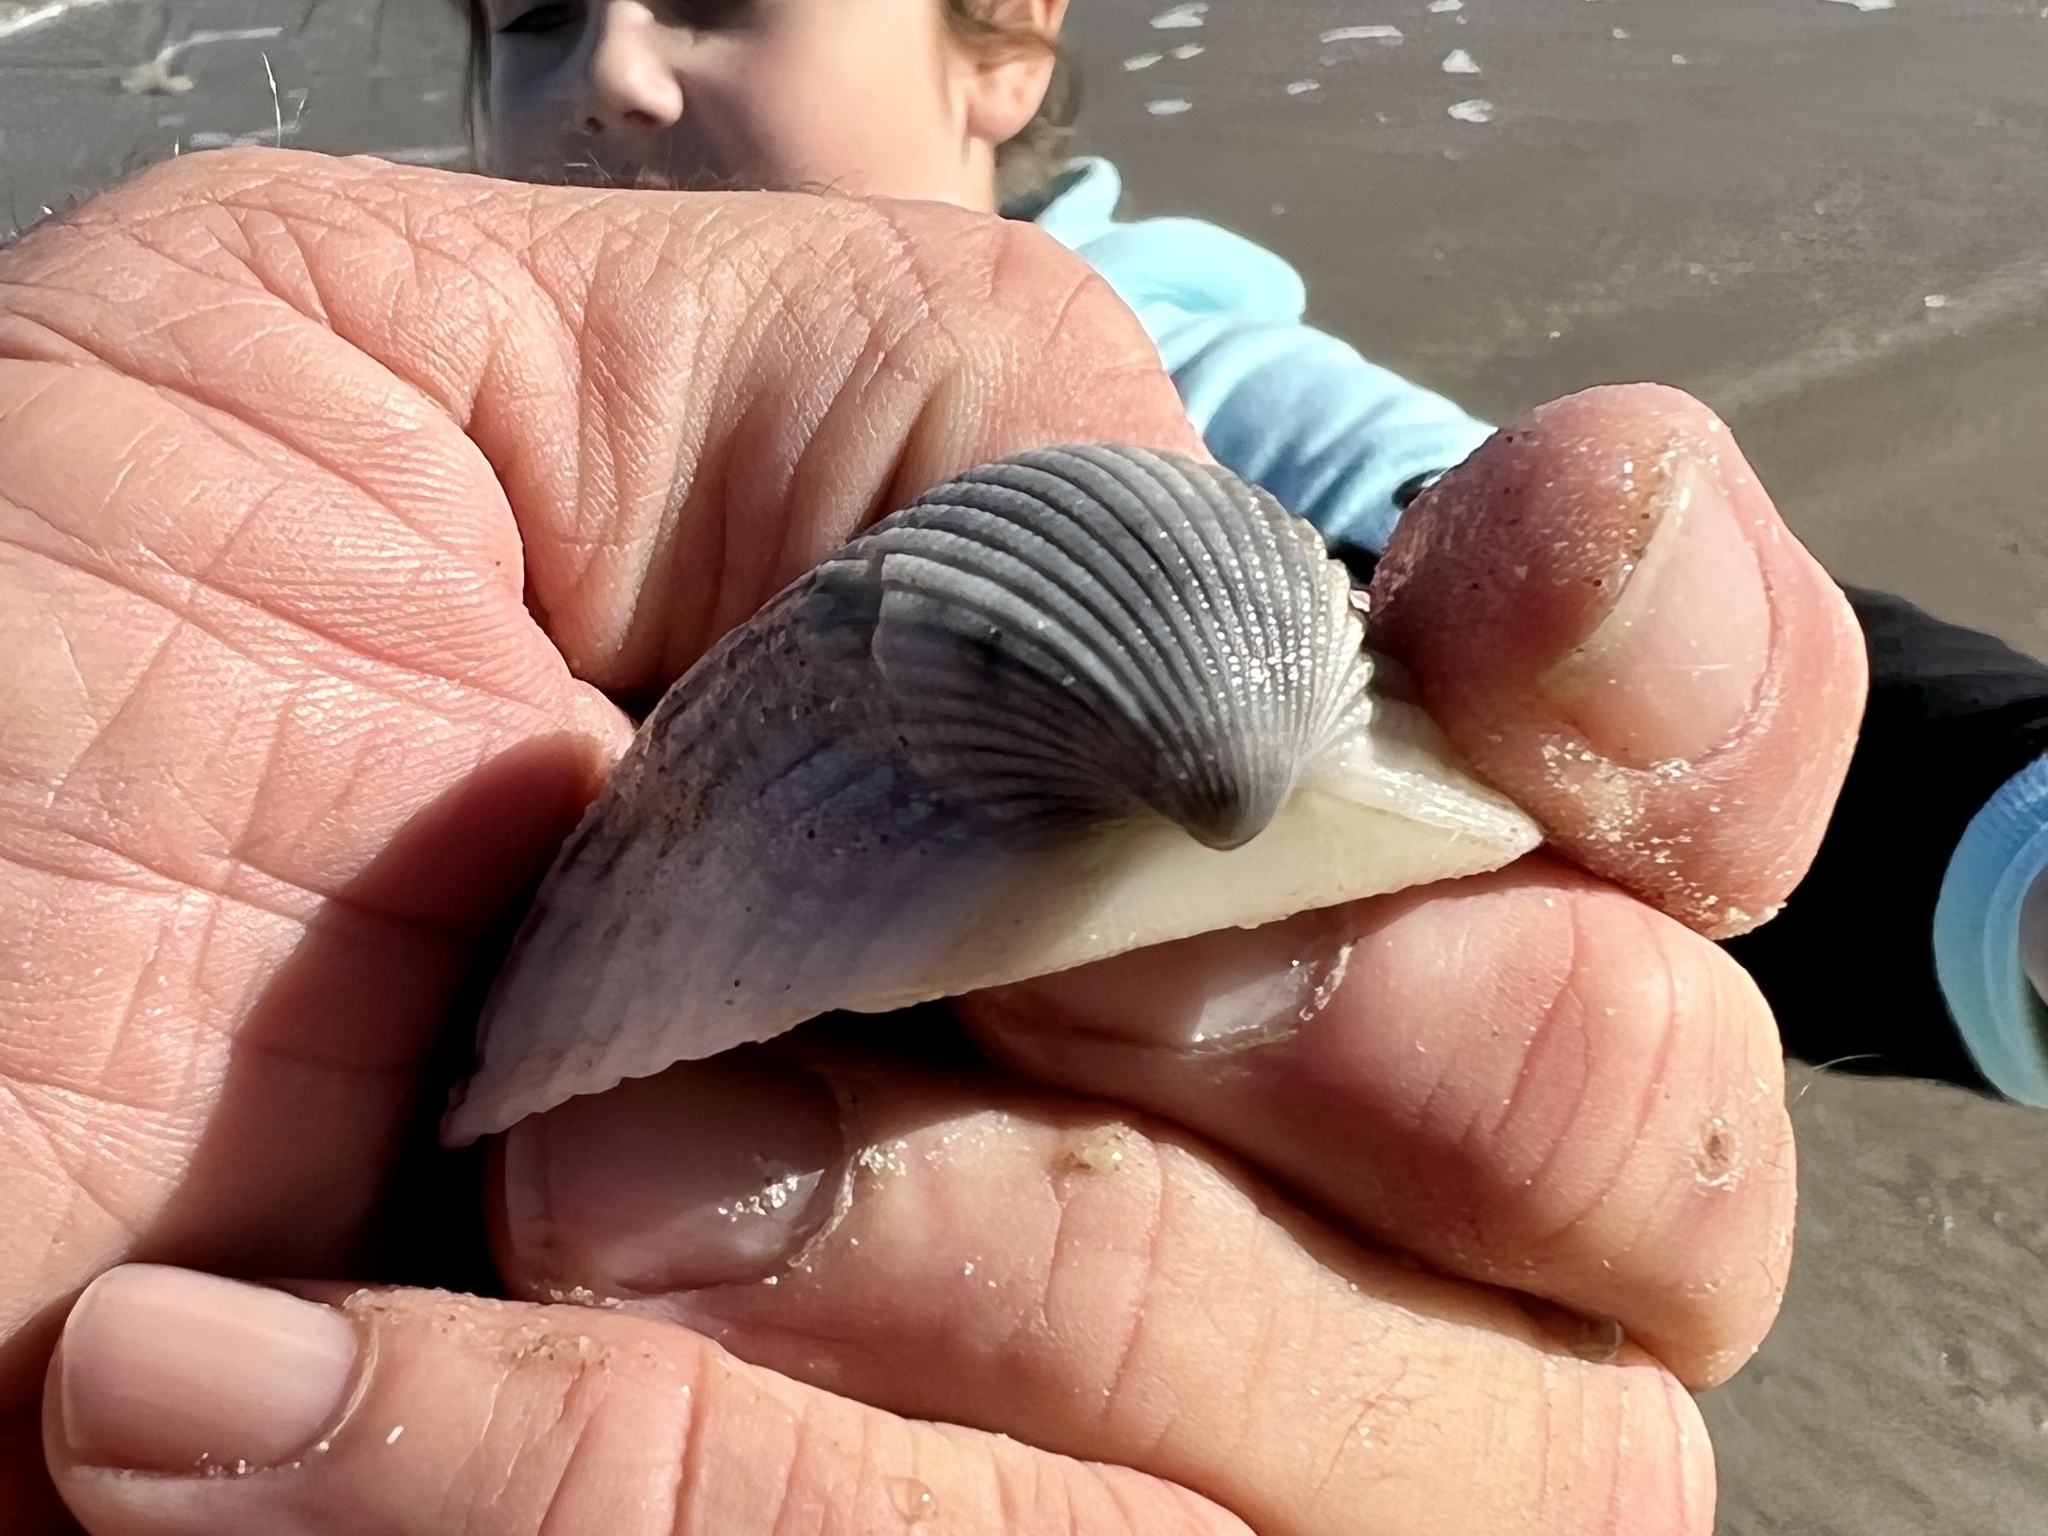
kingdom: Animalia
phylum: Mollusca
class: Bivalvia
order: Arcida
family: Arcidae
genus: Anadara
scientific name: Anadara brasiliana
